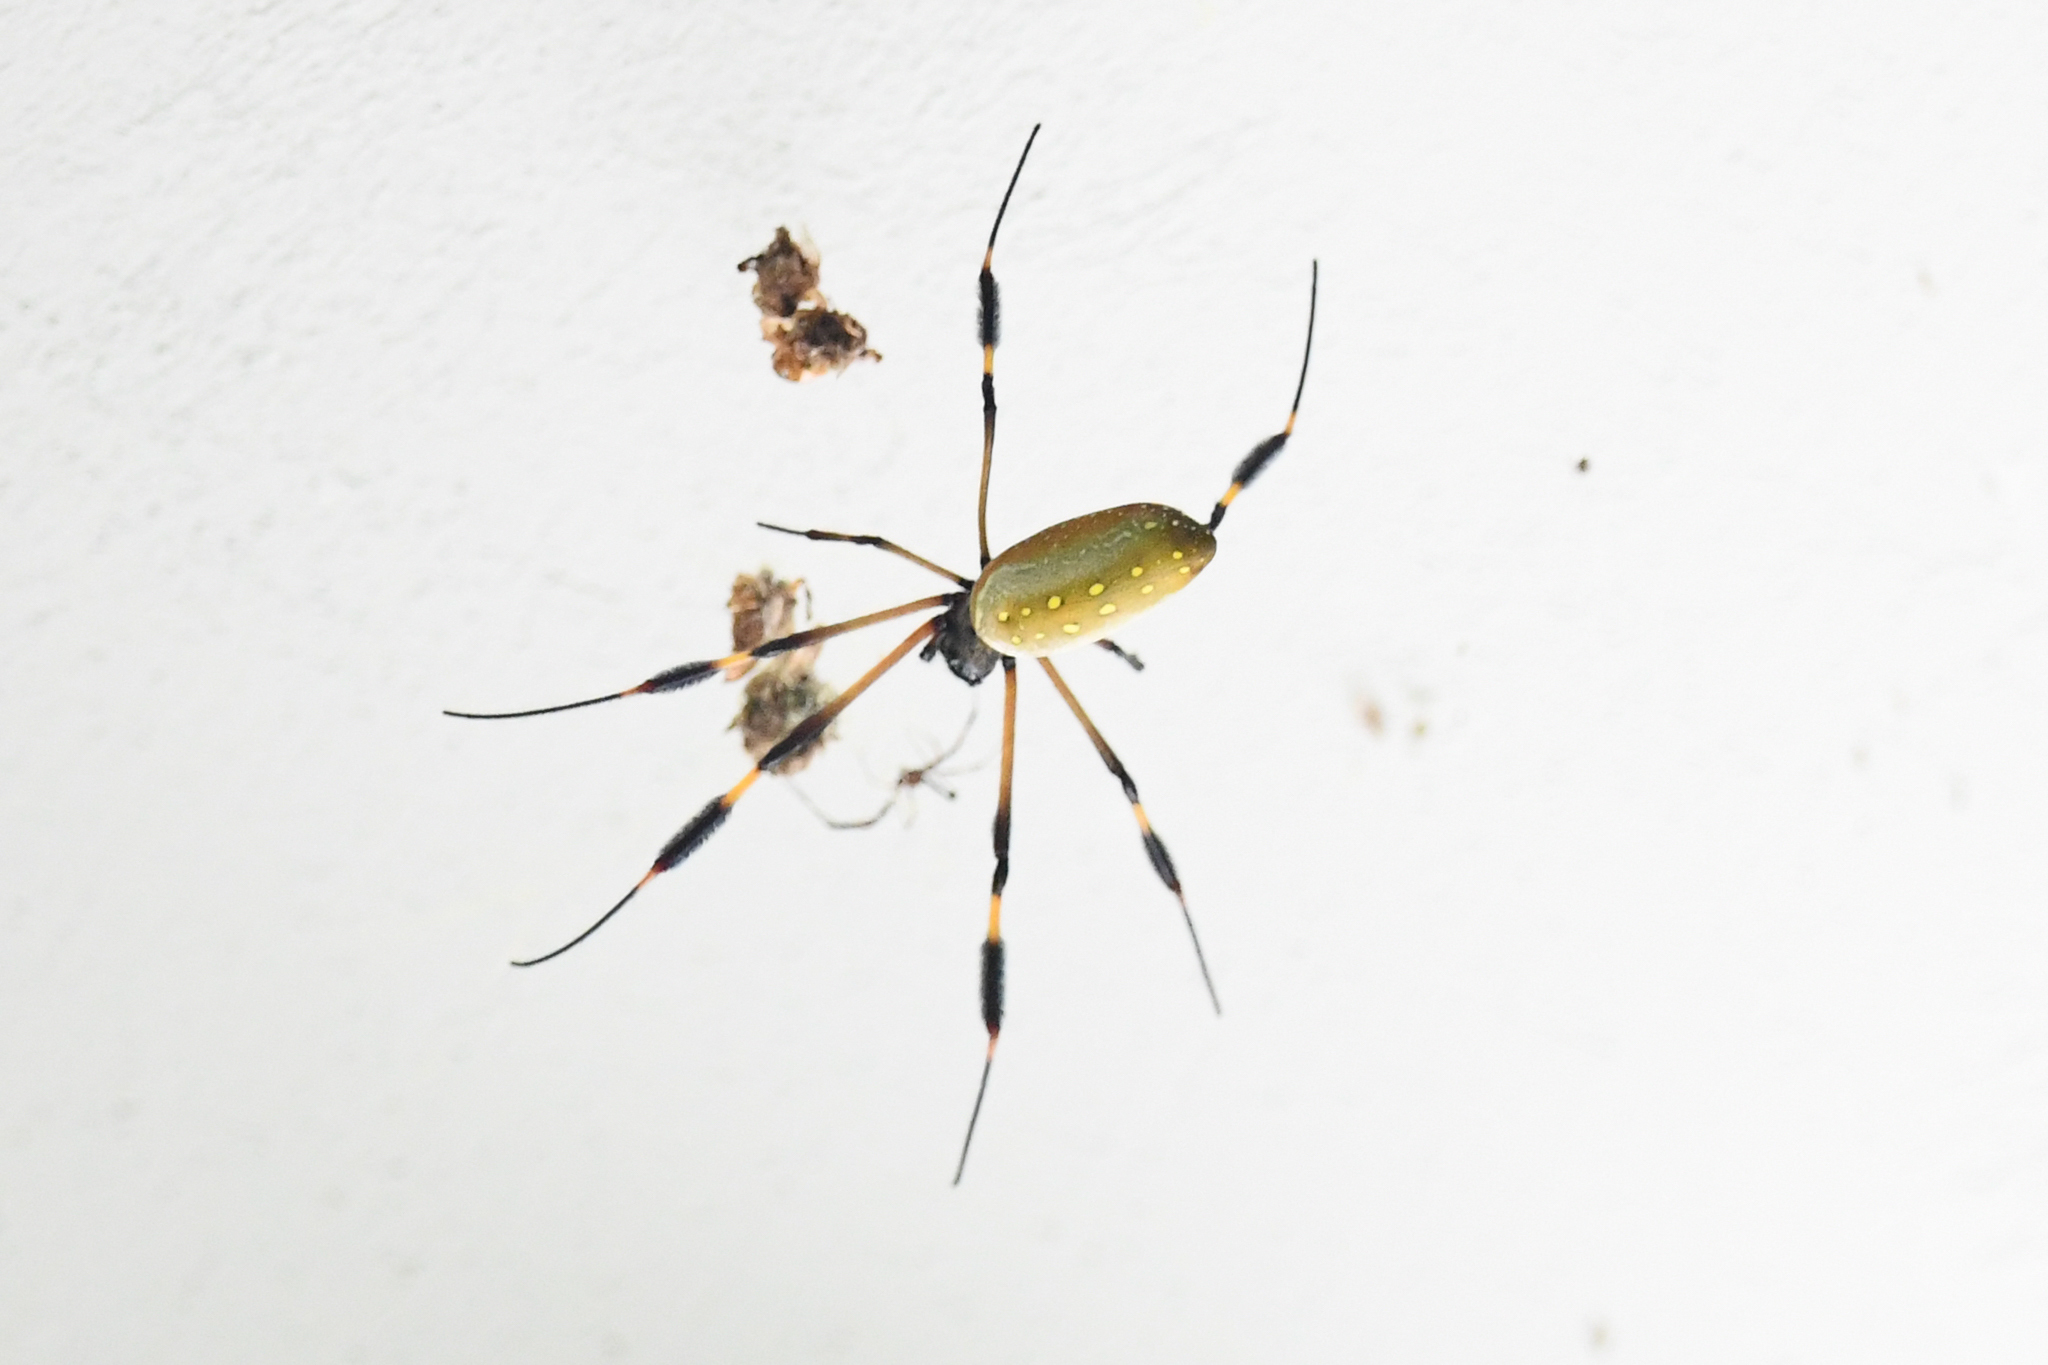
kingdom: Animalia
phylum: Arthropoda
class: Arachnida
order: Araneae
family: Araneidae
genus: Trichonephila
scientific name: Trichonephila clavipes
